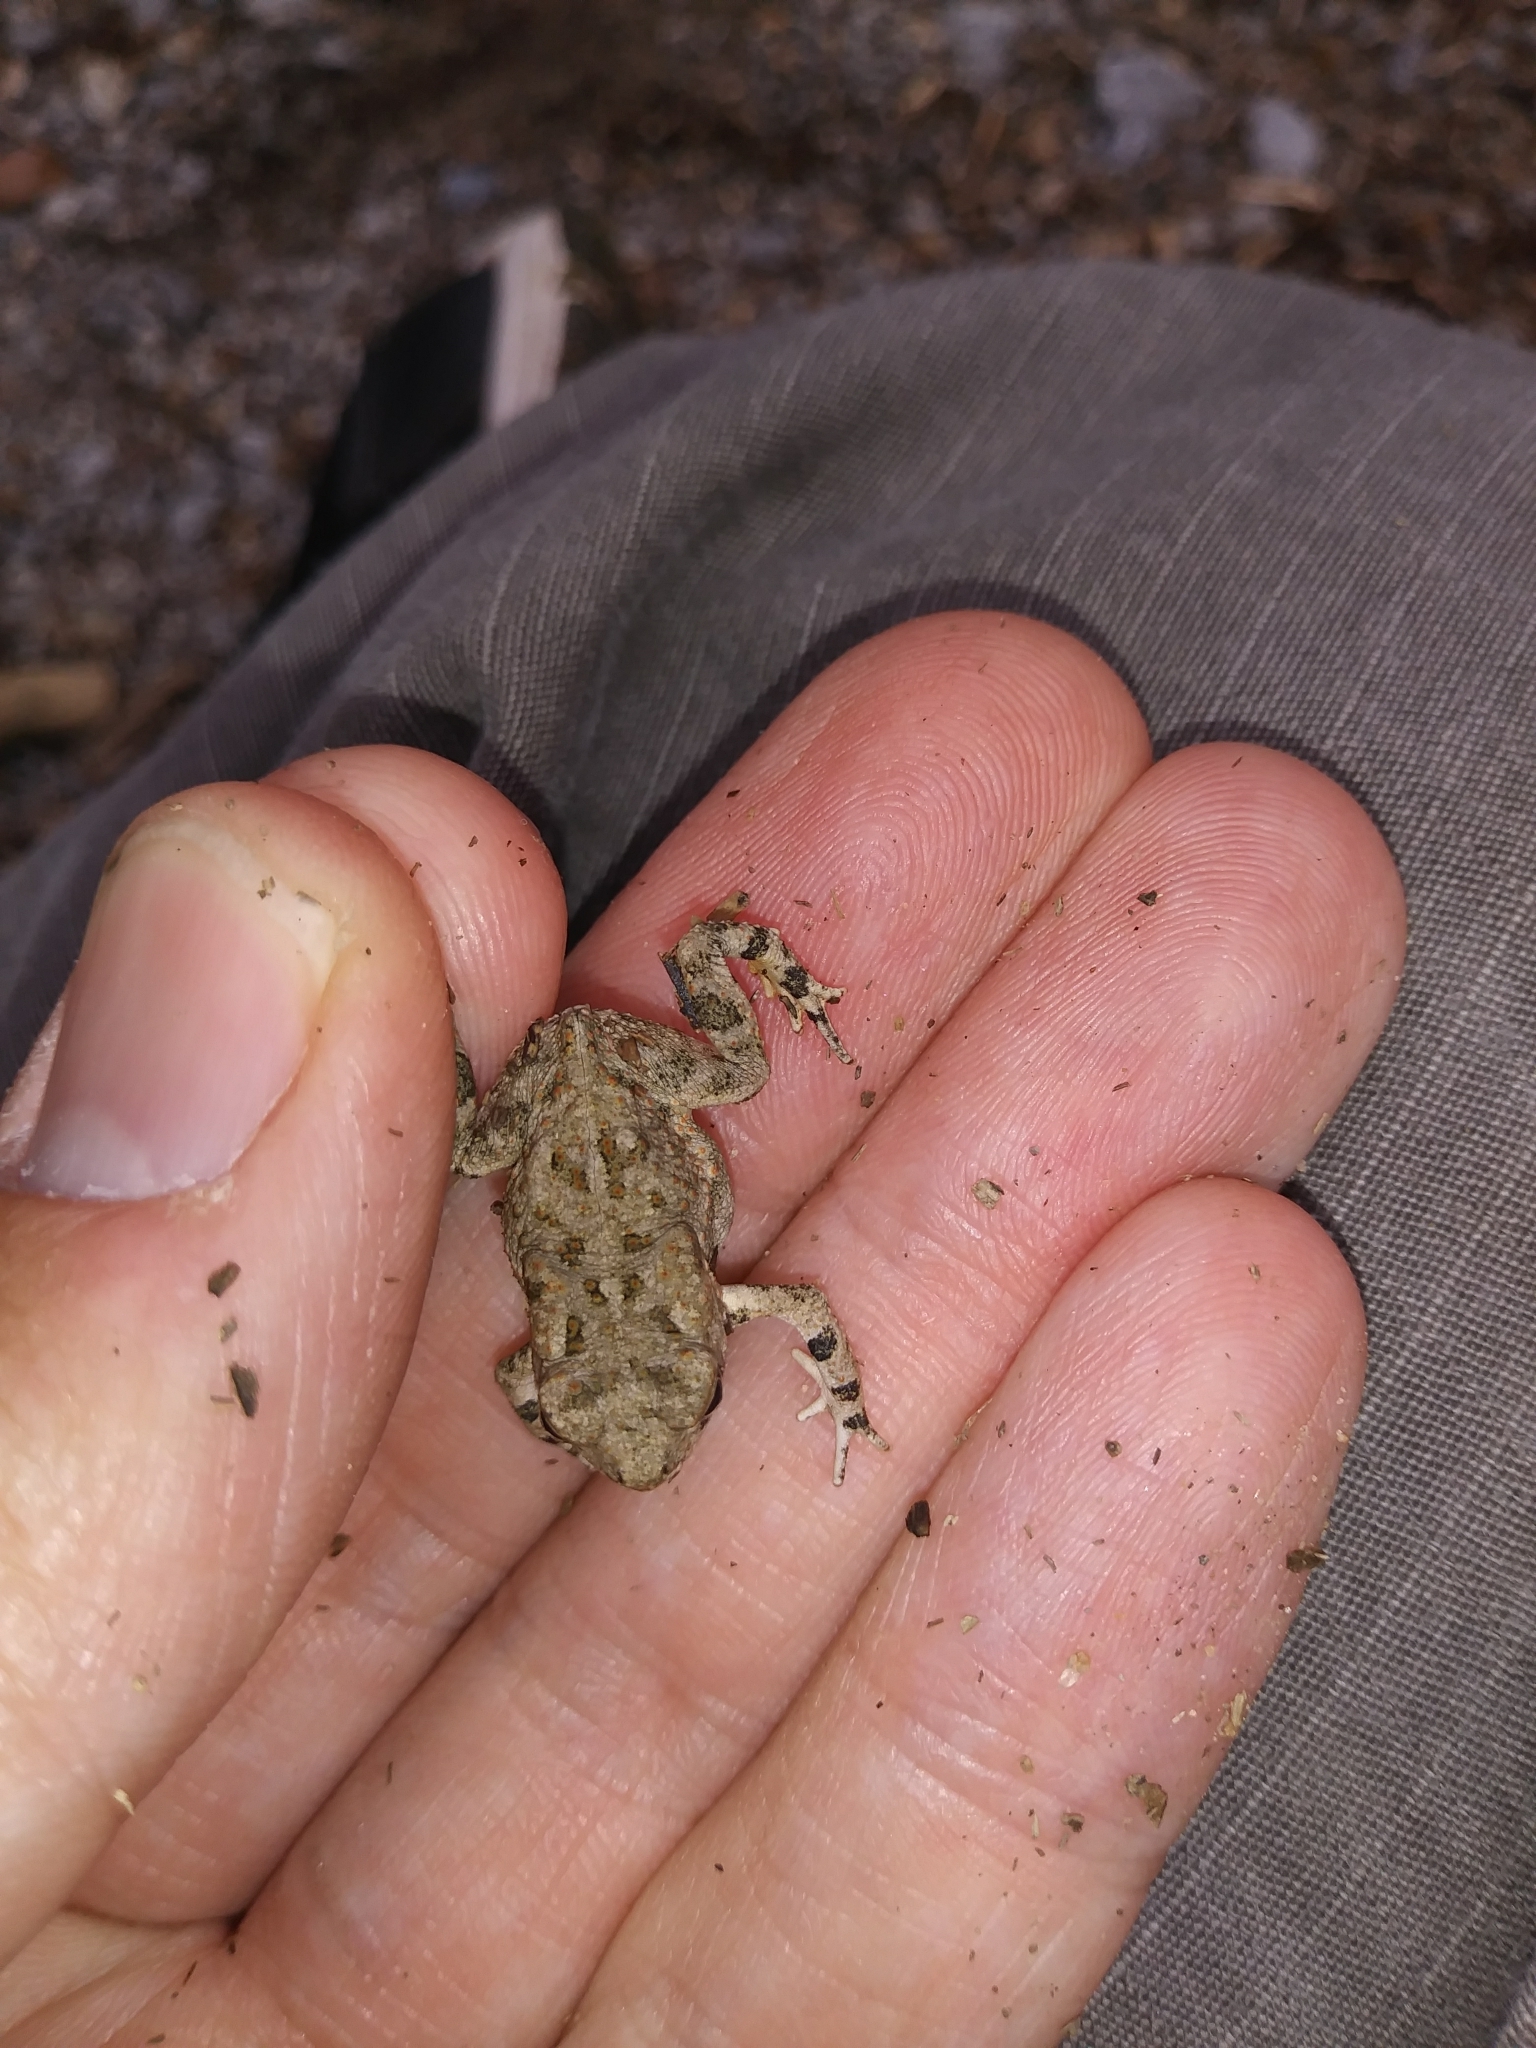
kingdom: Animalia
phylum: Chordata
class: Amphibia
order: Anura
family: Bufonidae
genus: Anaxyrus
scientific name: Anaxyrus fowleri
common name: Fowler's toad
